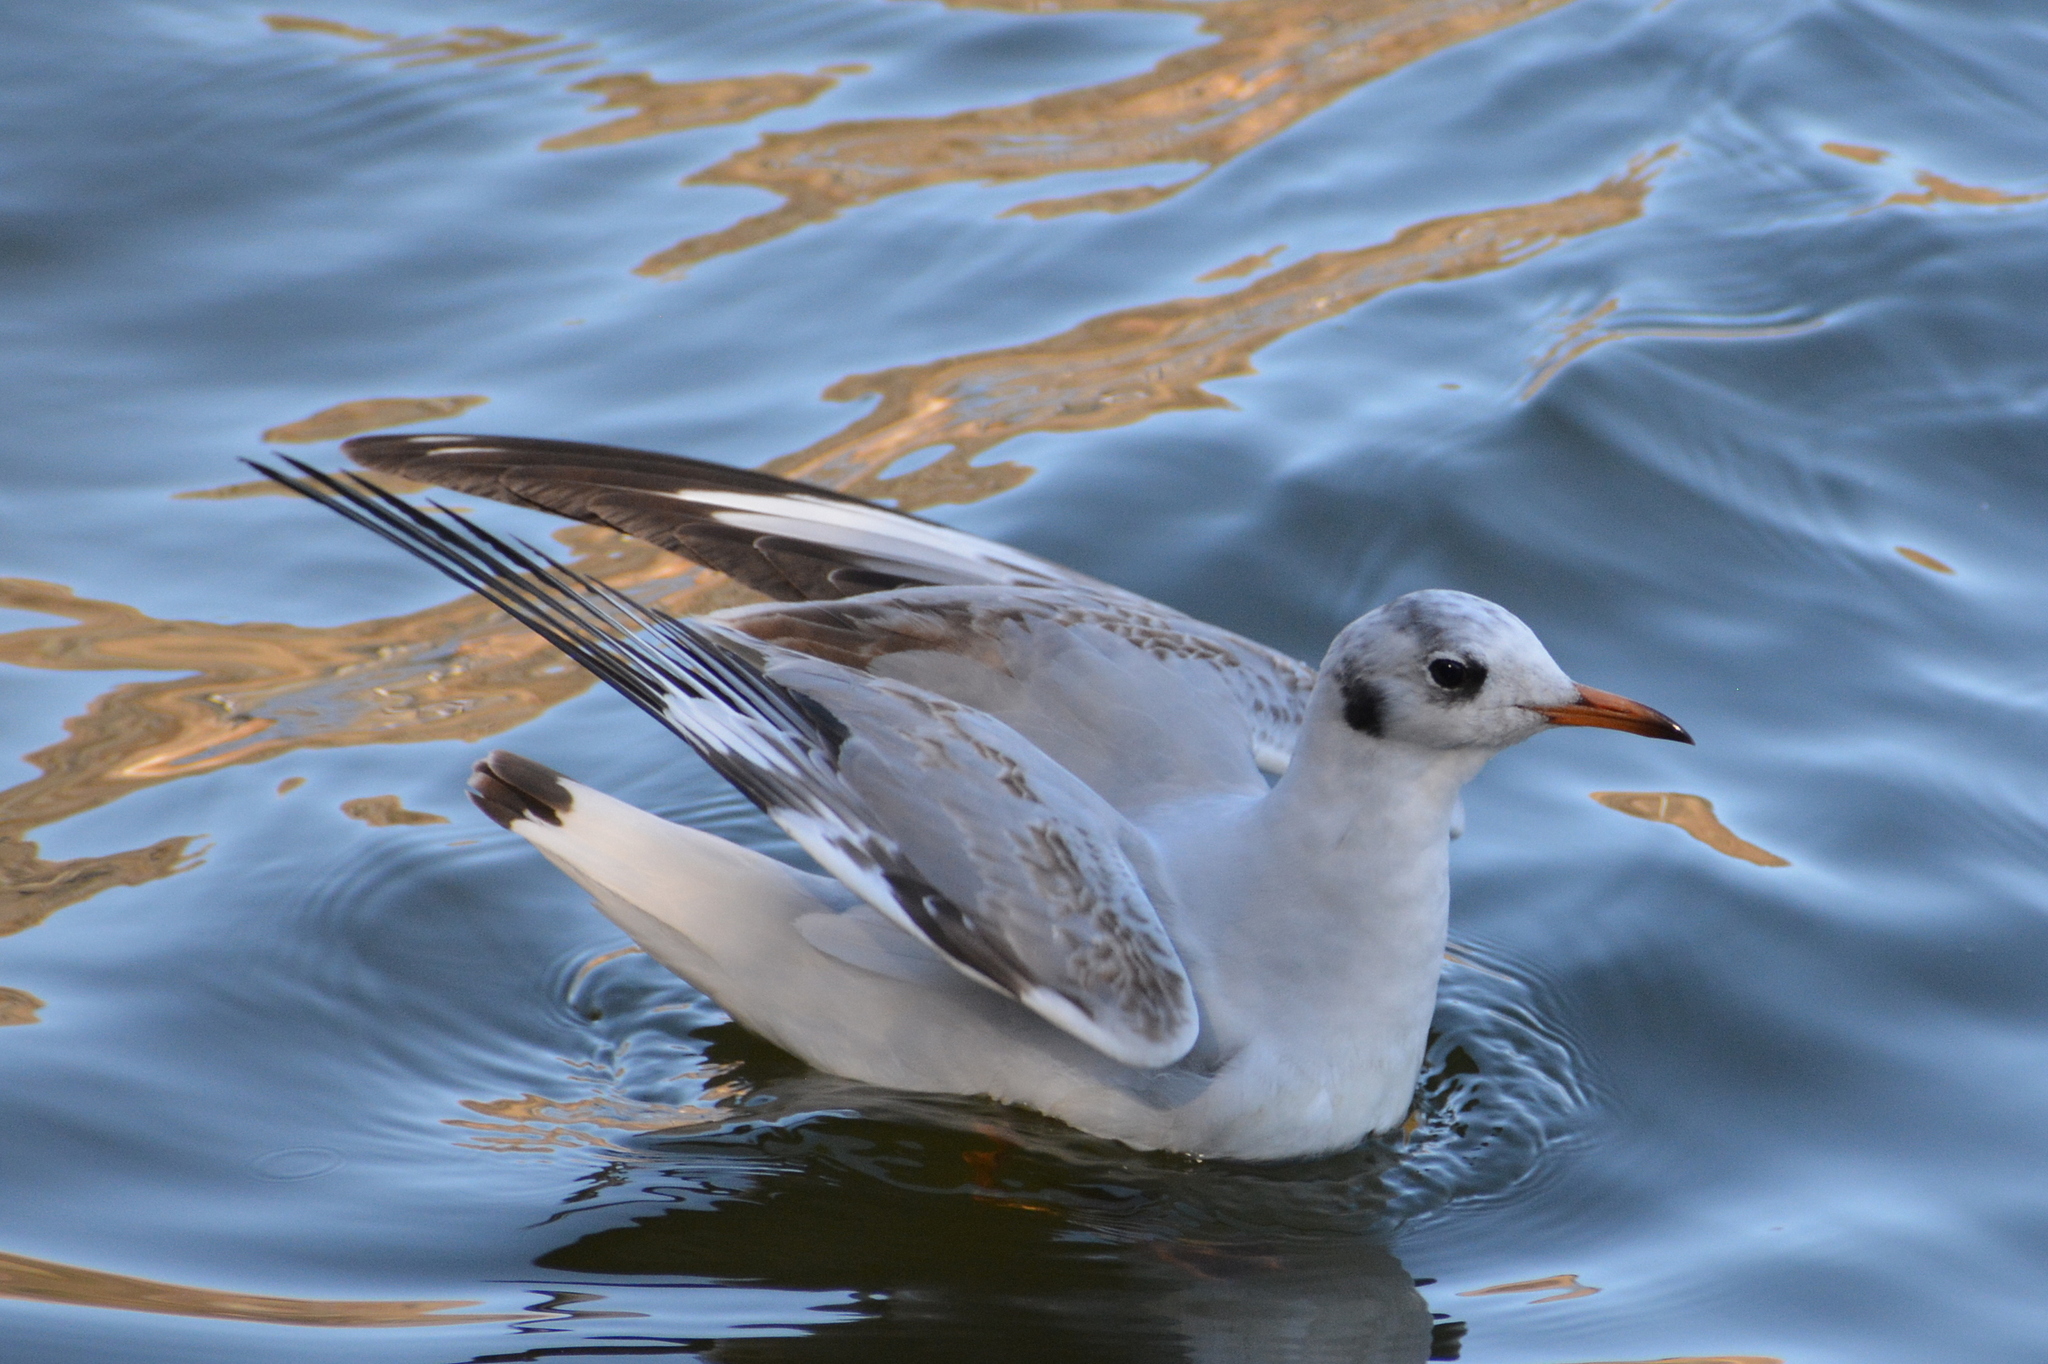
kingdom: Animalia
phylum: Chordata
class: Aves
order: Charadriiformes
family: Laridae
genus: Chroicocephalus
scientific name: Chroicocephalus ridibundus
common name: Black-headed gull
